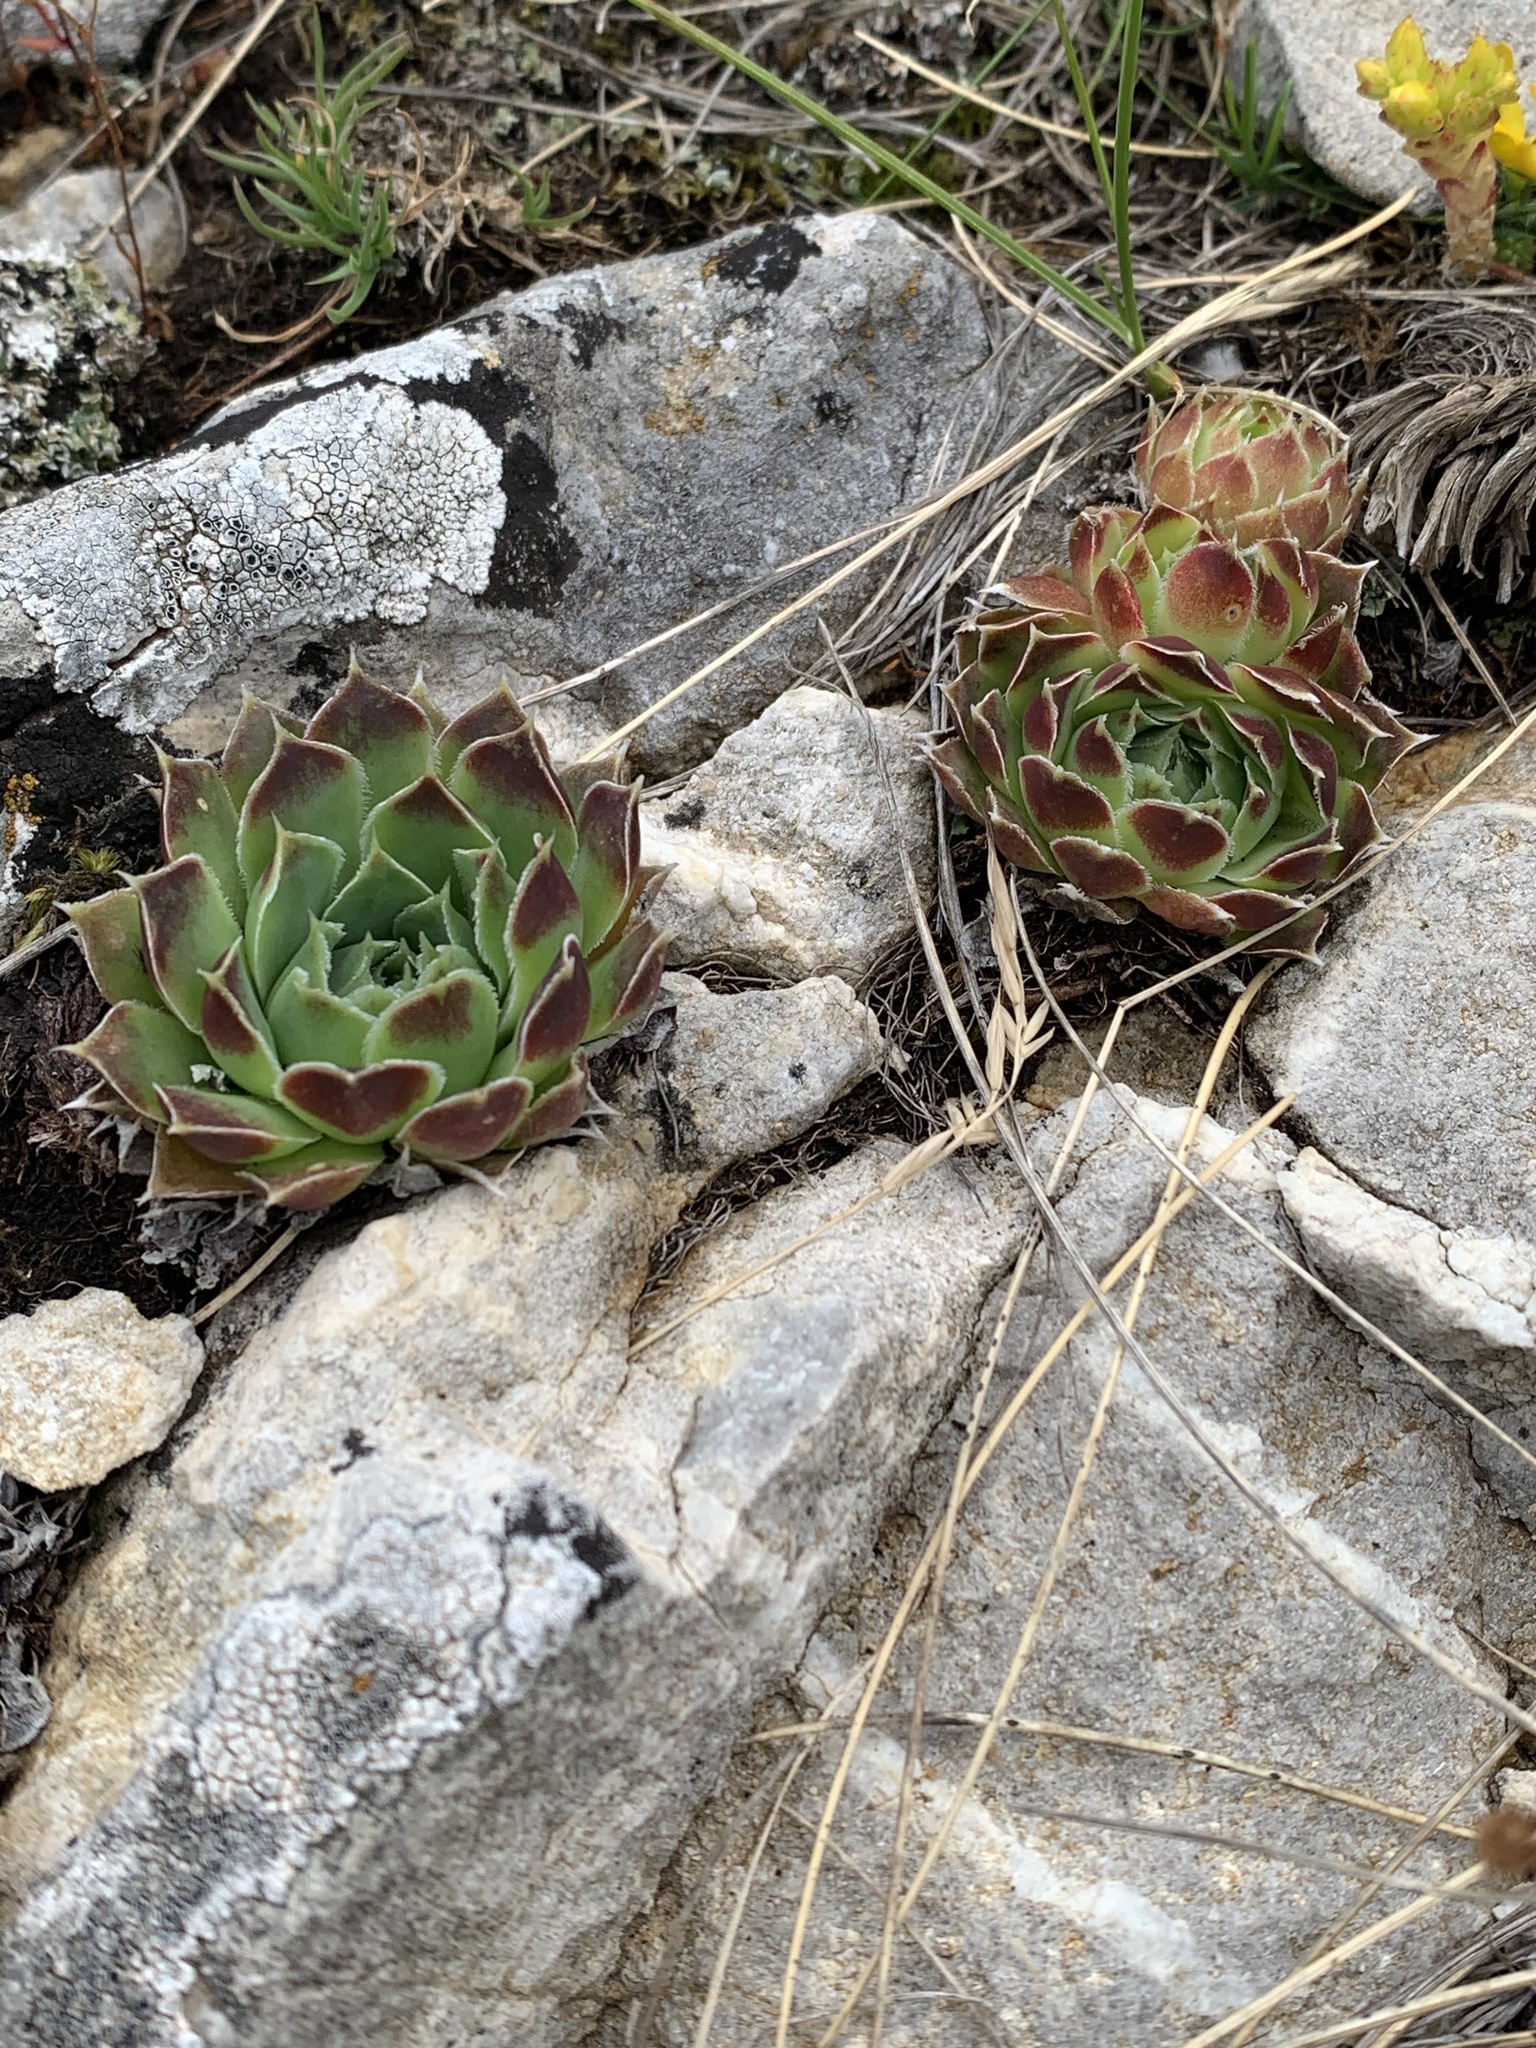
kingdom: Plantae
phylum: Tracheophyta
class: Magnoliopsida
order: Saxifragales
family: Crassulaceae
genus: Sempervivum
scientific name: Sempervivum heuffelii
